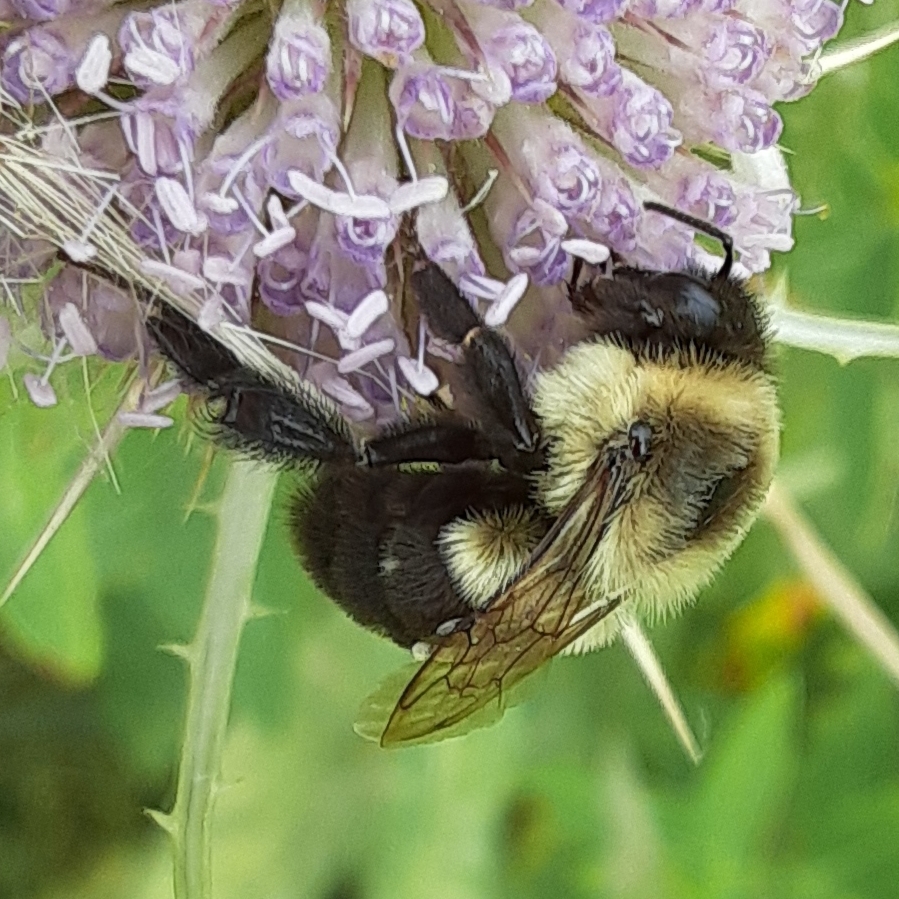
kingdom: Animalia
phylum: Arthropoda
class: Insecta
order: Hymenoptera
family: Apidae
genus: Bombus
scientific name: Bombus impatiens
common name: Common eastern bumble bee
